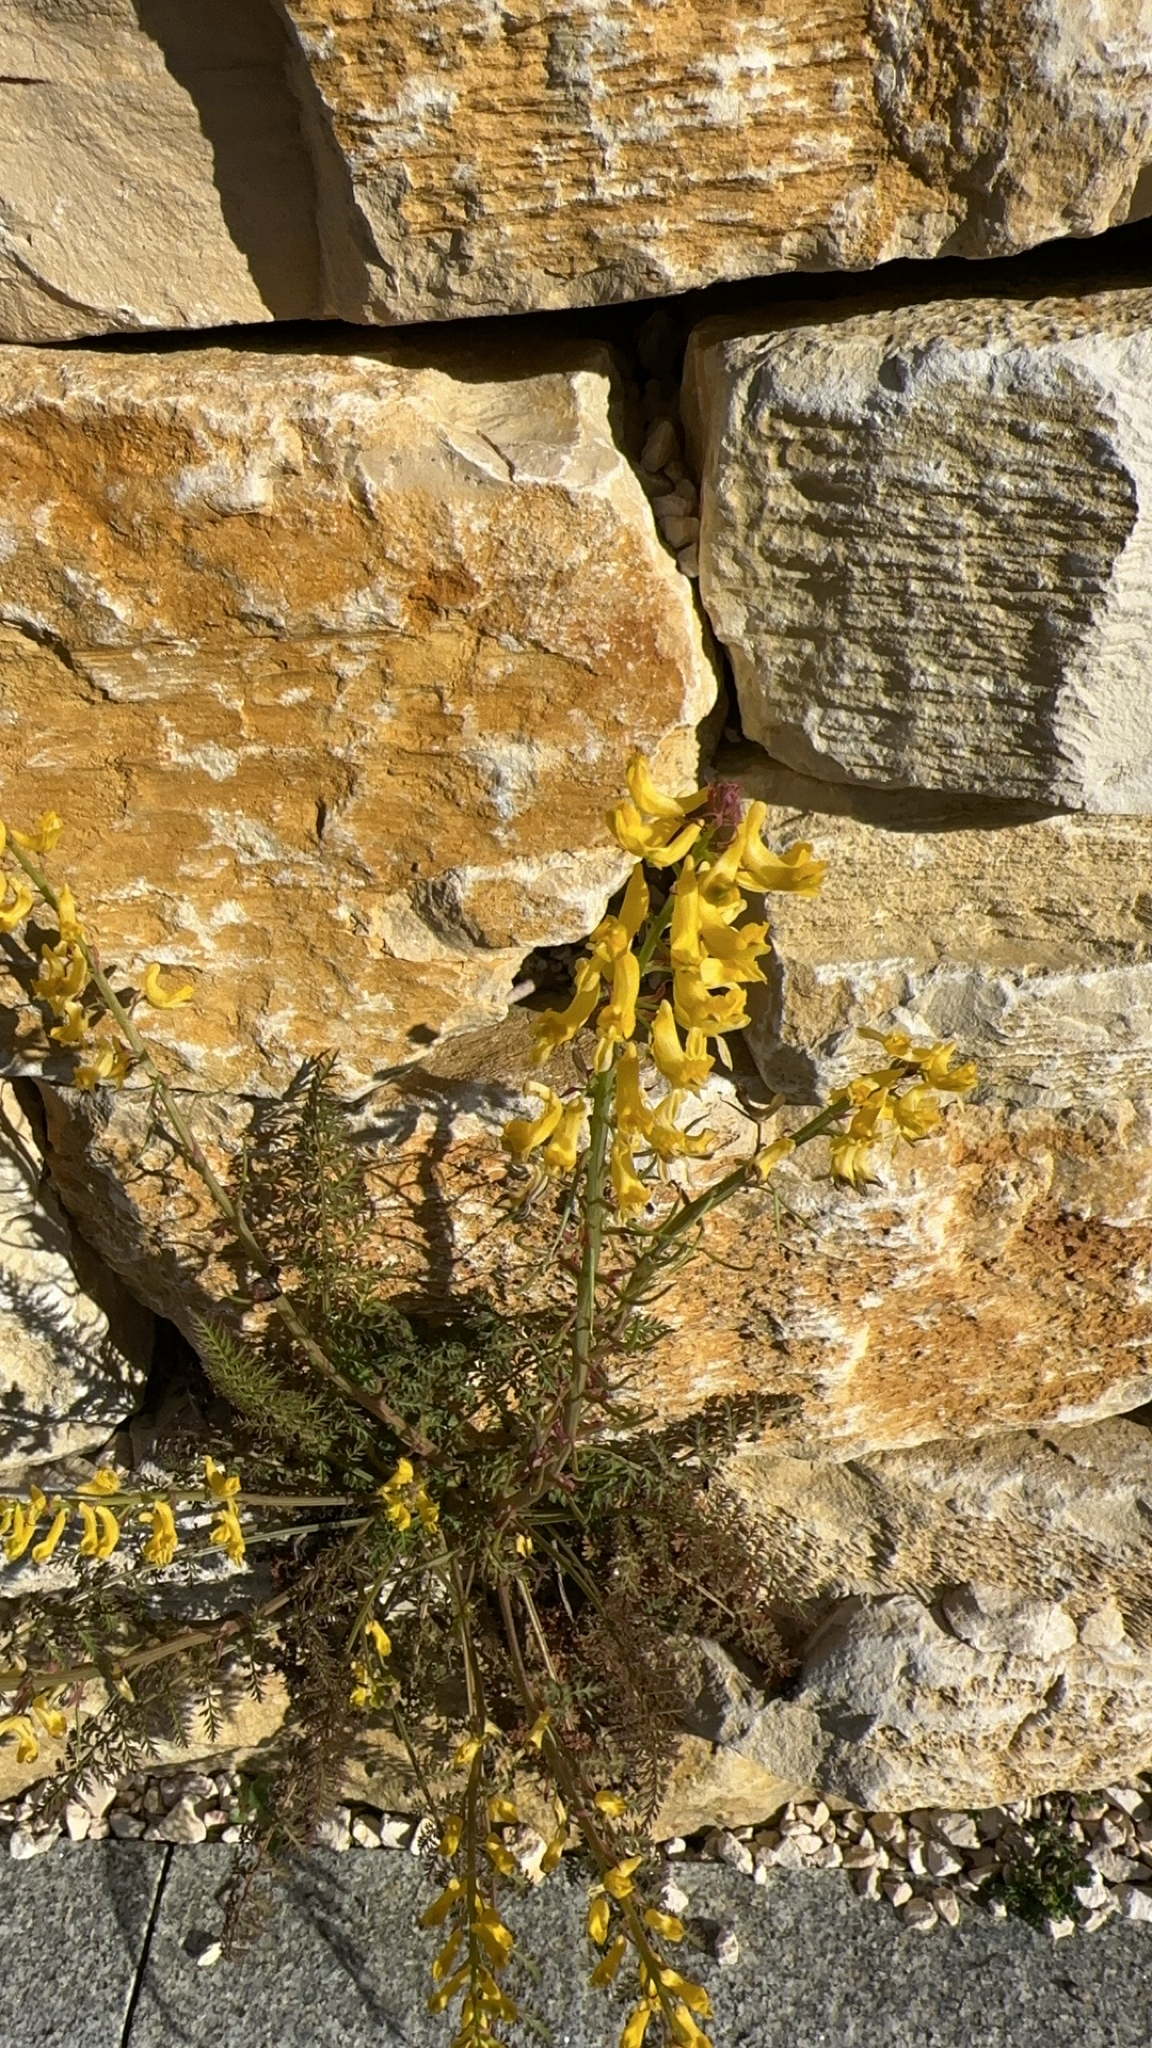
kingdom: Plantae
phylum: Tracheophyta
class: Magnoliopsida
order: Ranunculales
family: Papaveraceae
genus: Corydalis
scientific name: Corydalis cheilanthifolia
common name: Fern-leaved corydalis
